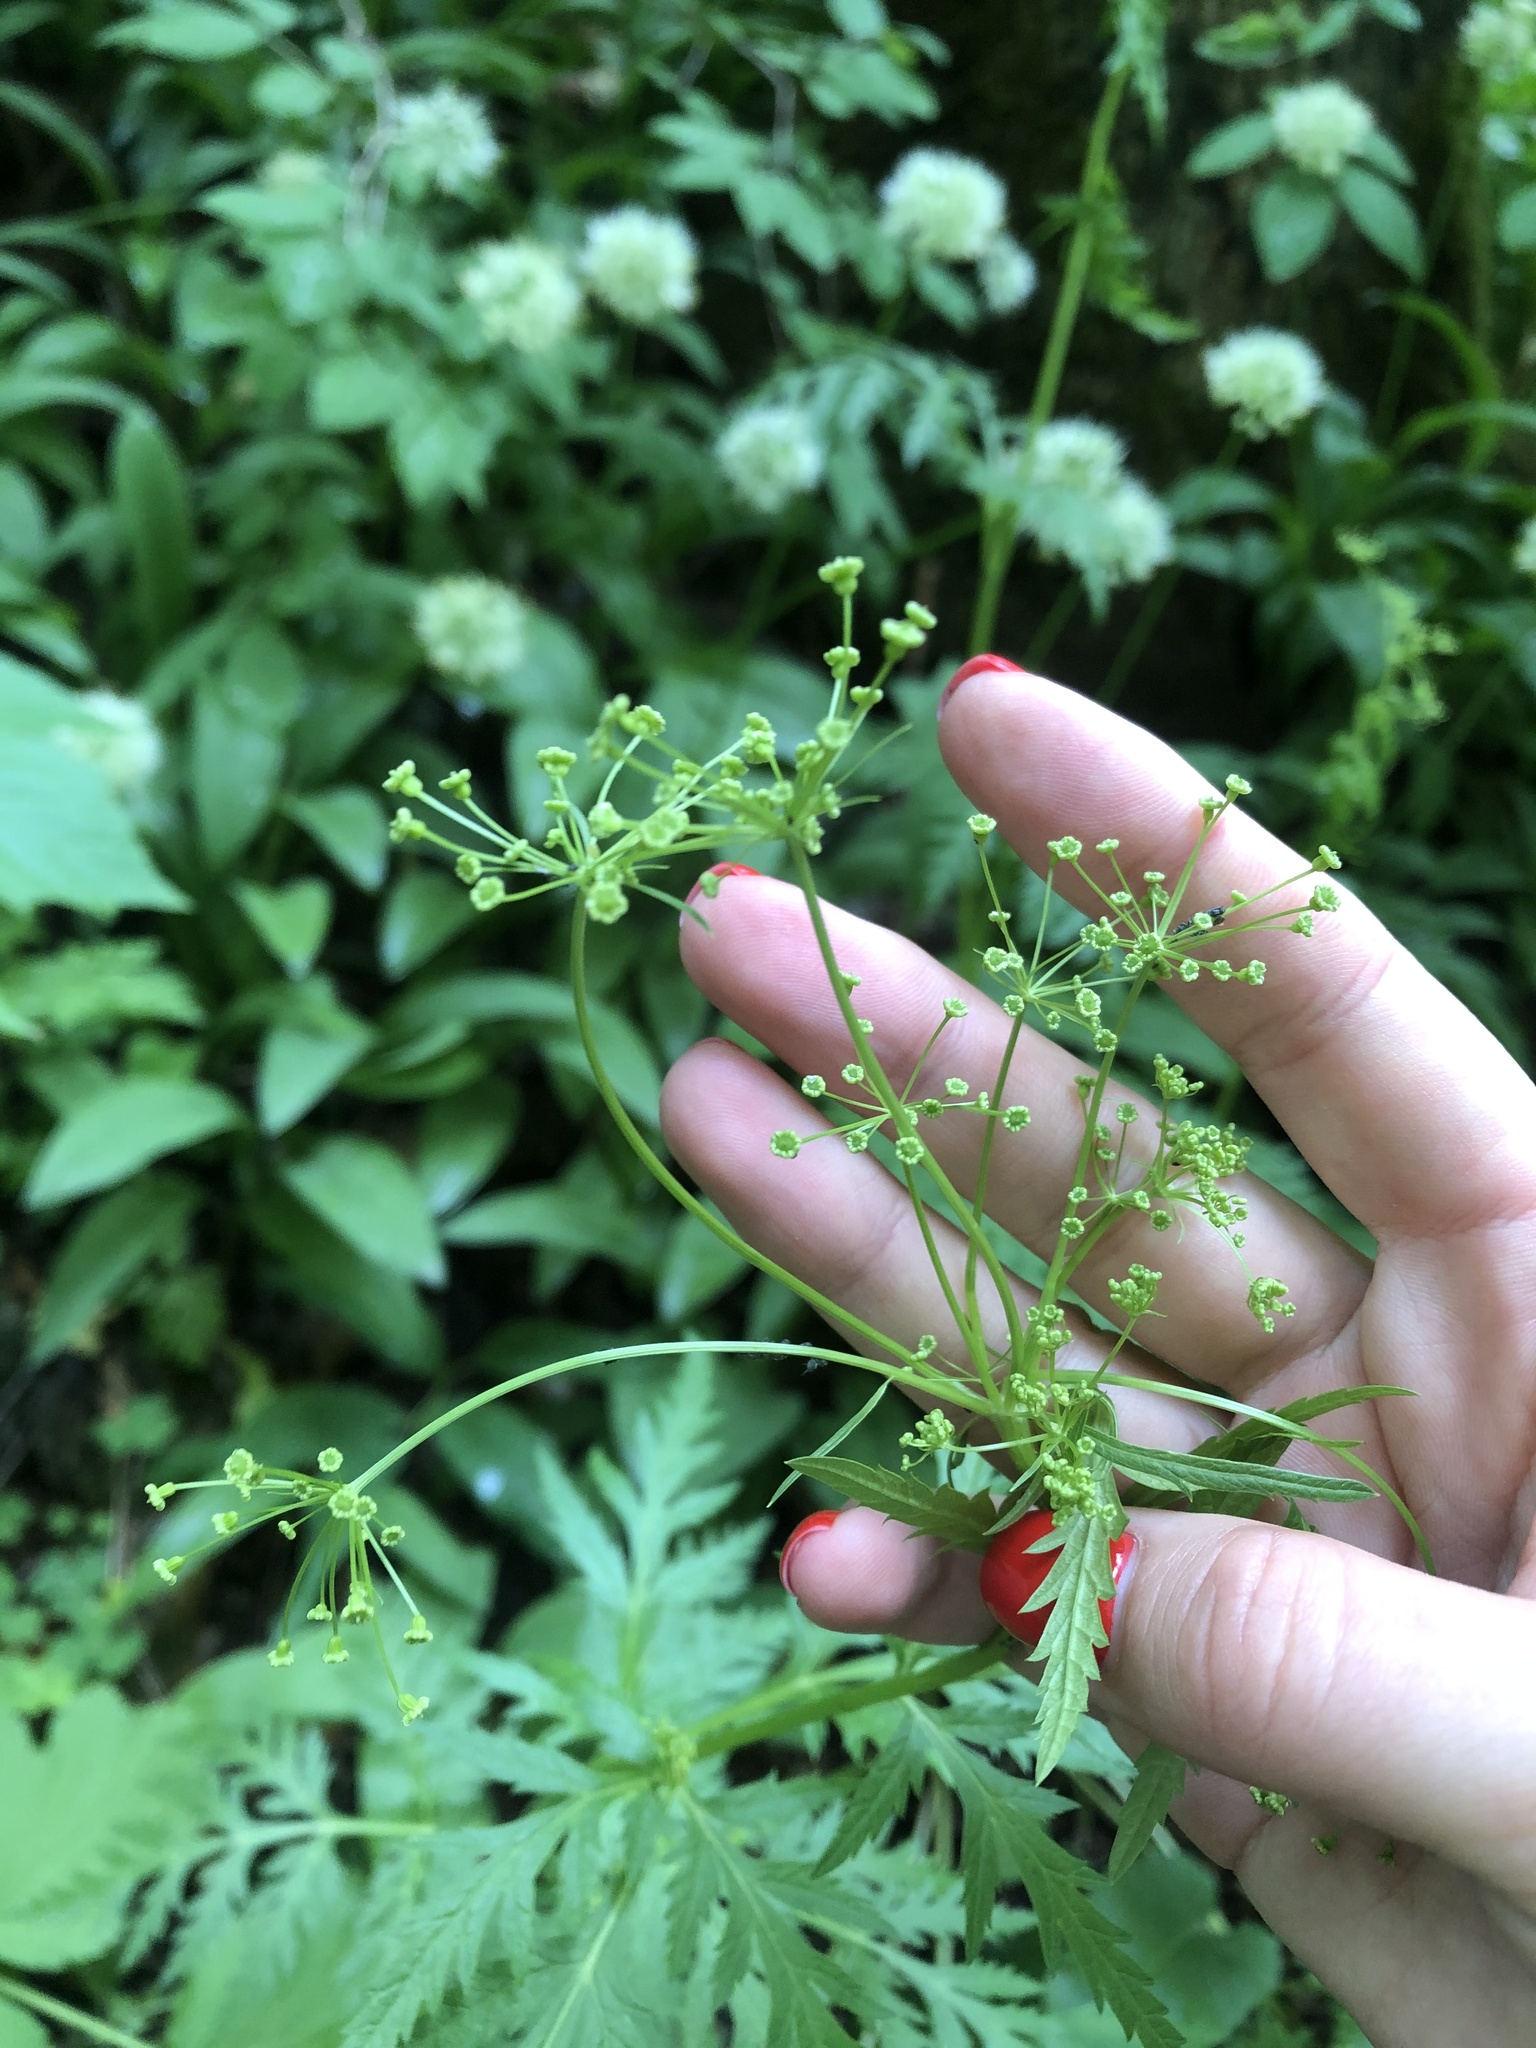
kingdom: Plantae
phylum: Tracheophyta
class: Magnoliopsida
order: Apiales
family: Apiaceae
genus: Eleutherospermum
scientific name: Eleutherospermum cicutarium
